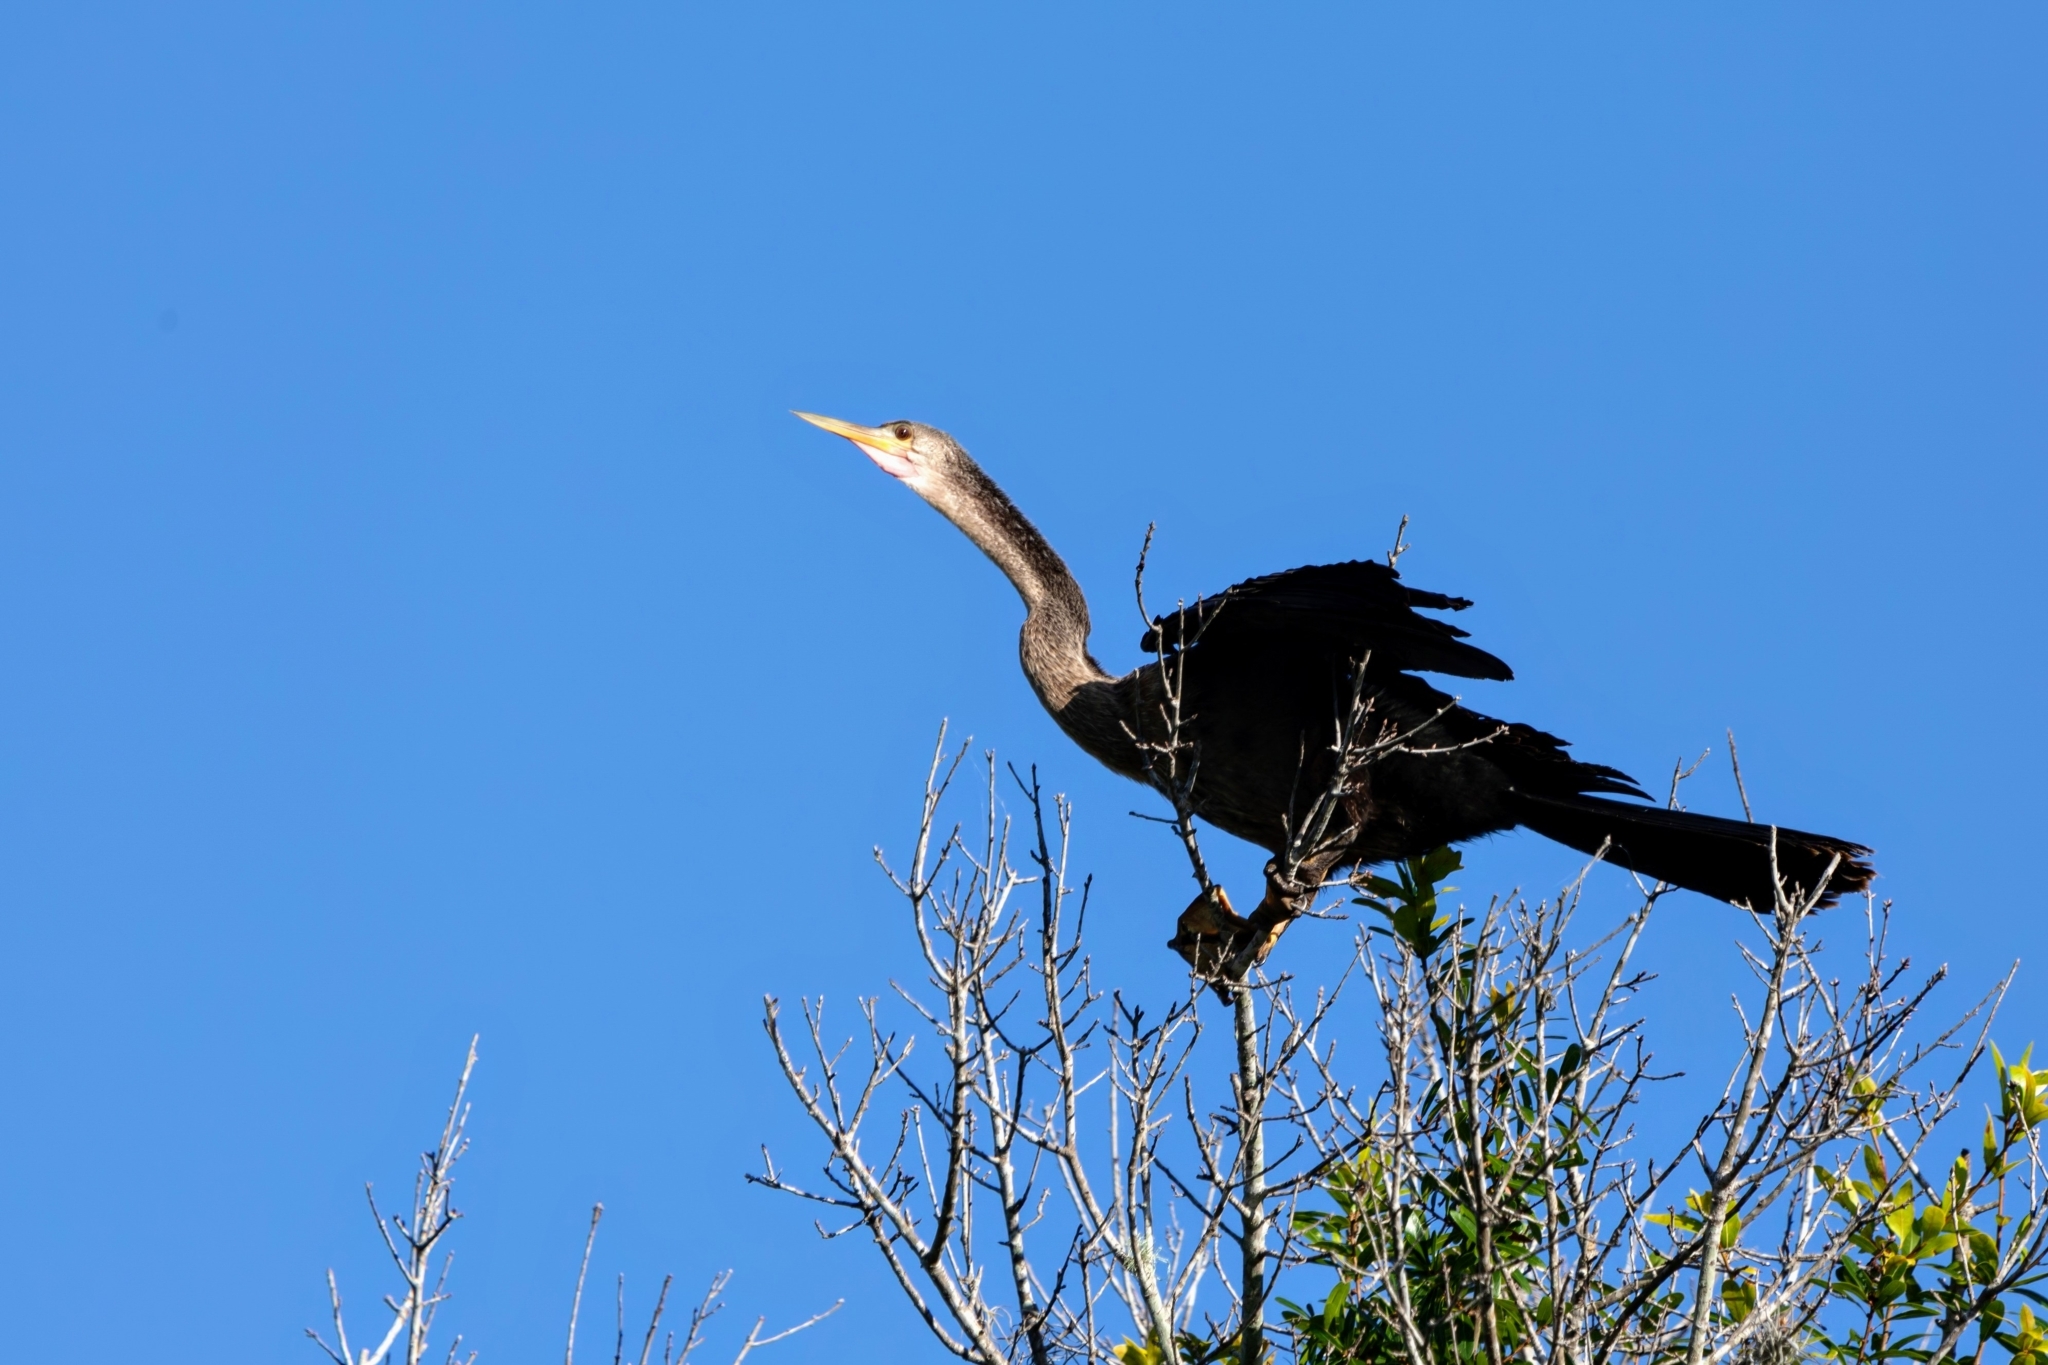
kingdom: Animalia
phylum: Chordata
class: Aves
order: Suliformes
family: Anhingidae
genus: Anhinga
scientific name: Anhinga anhinga
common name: Anhinga
